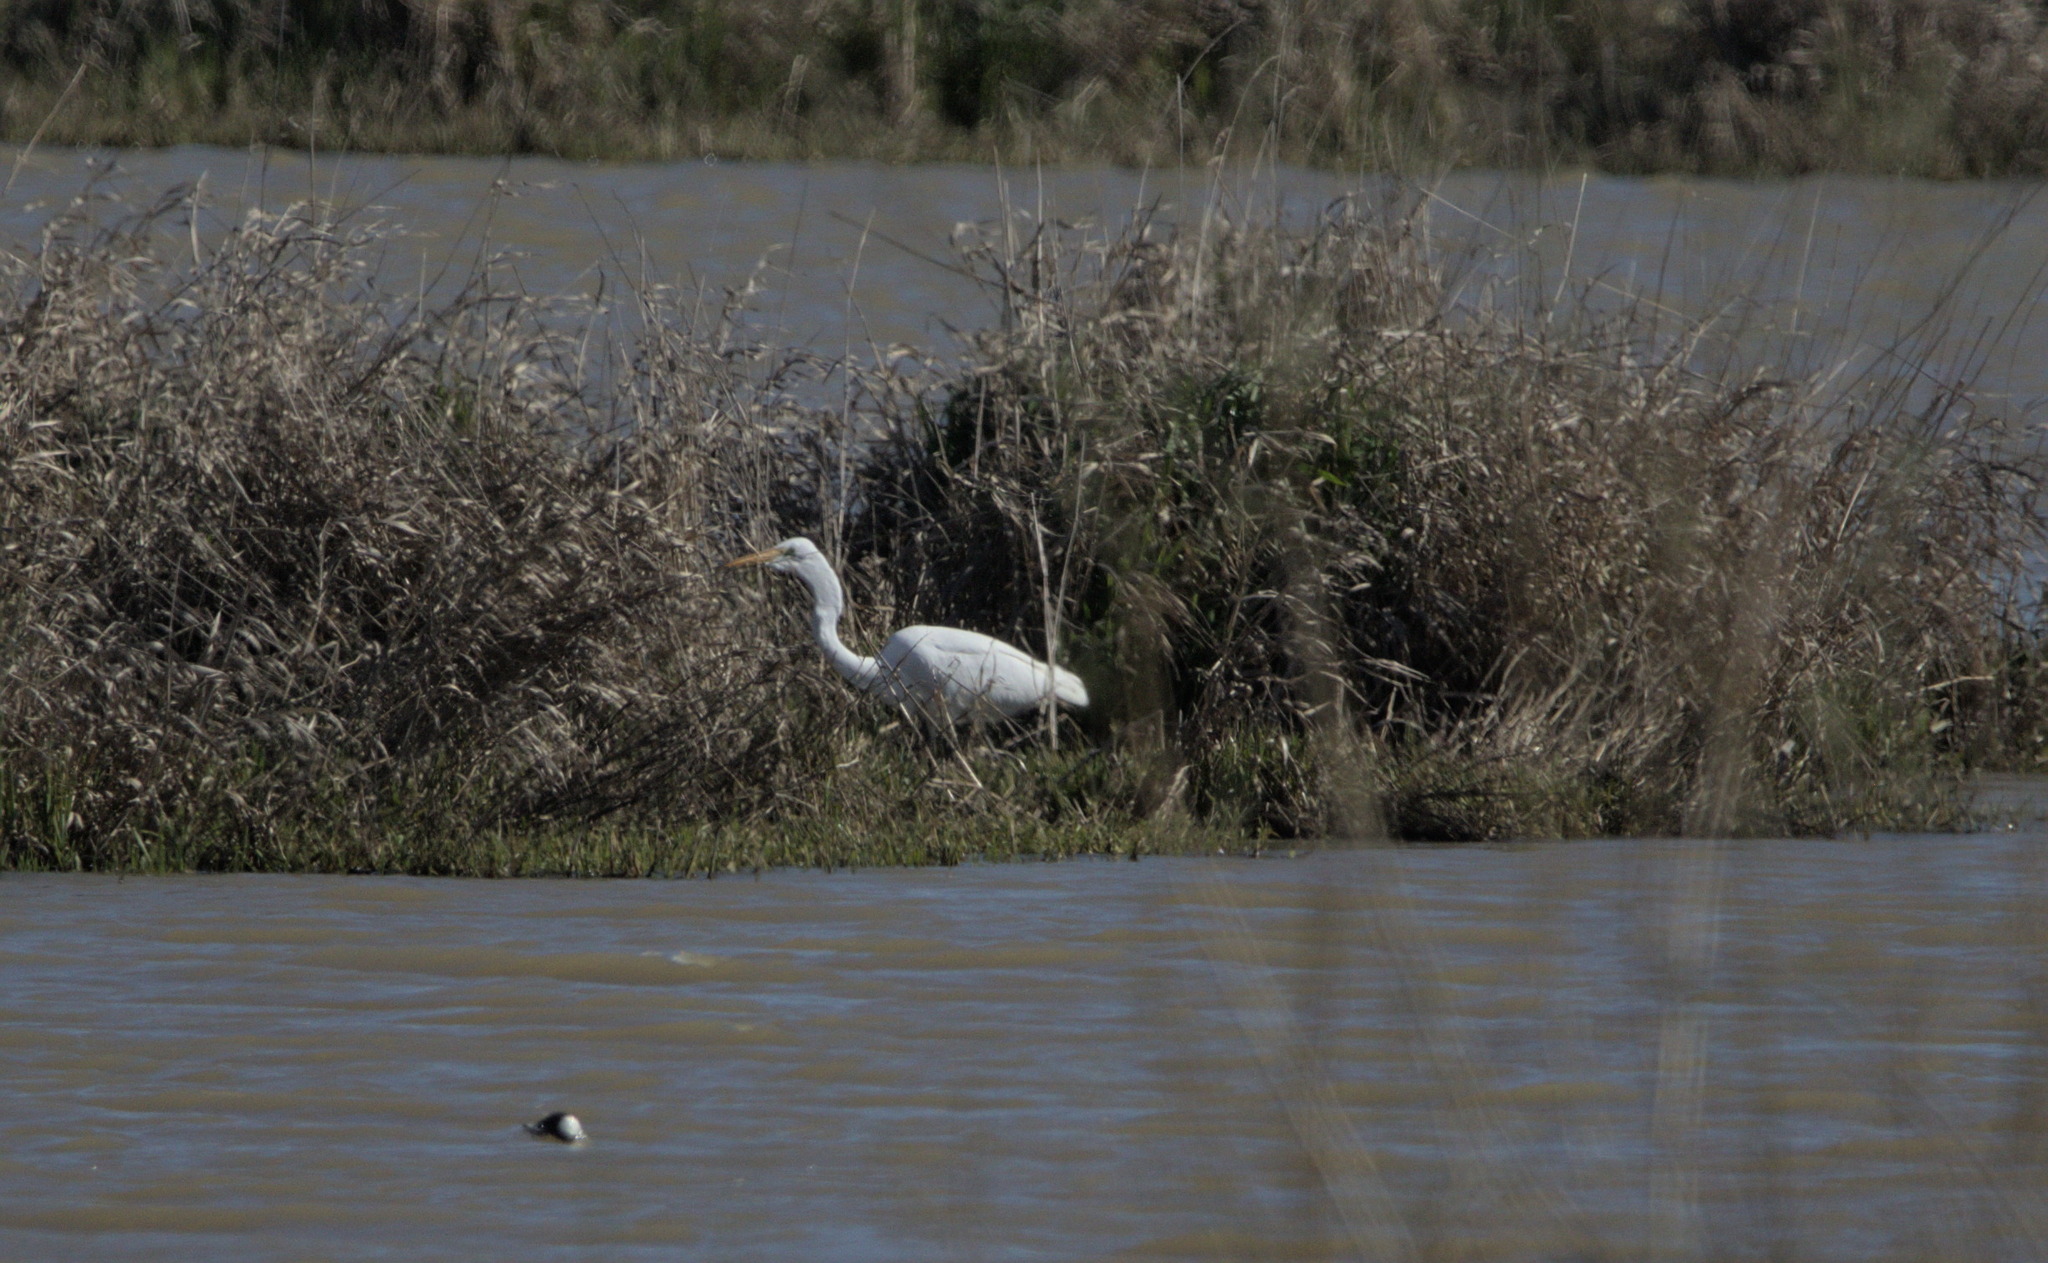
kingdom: Animalia
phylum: Chordata
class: Aves
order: Pelecaniformes
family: Ardeidae
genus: Ardea
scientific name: Ardea alba
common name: Great egret
